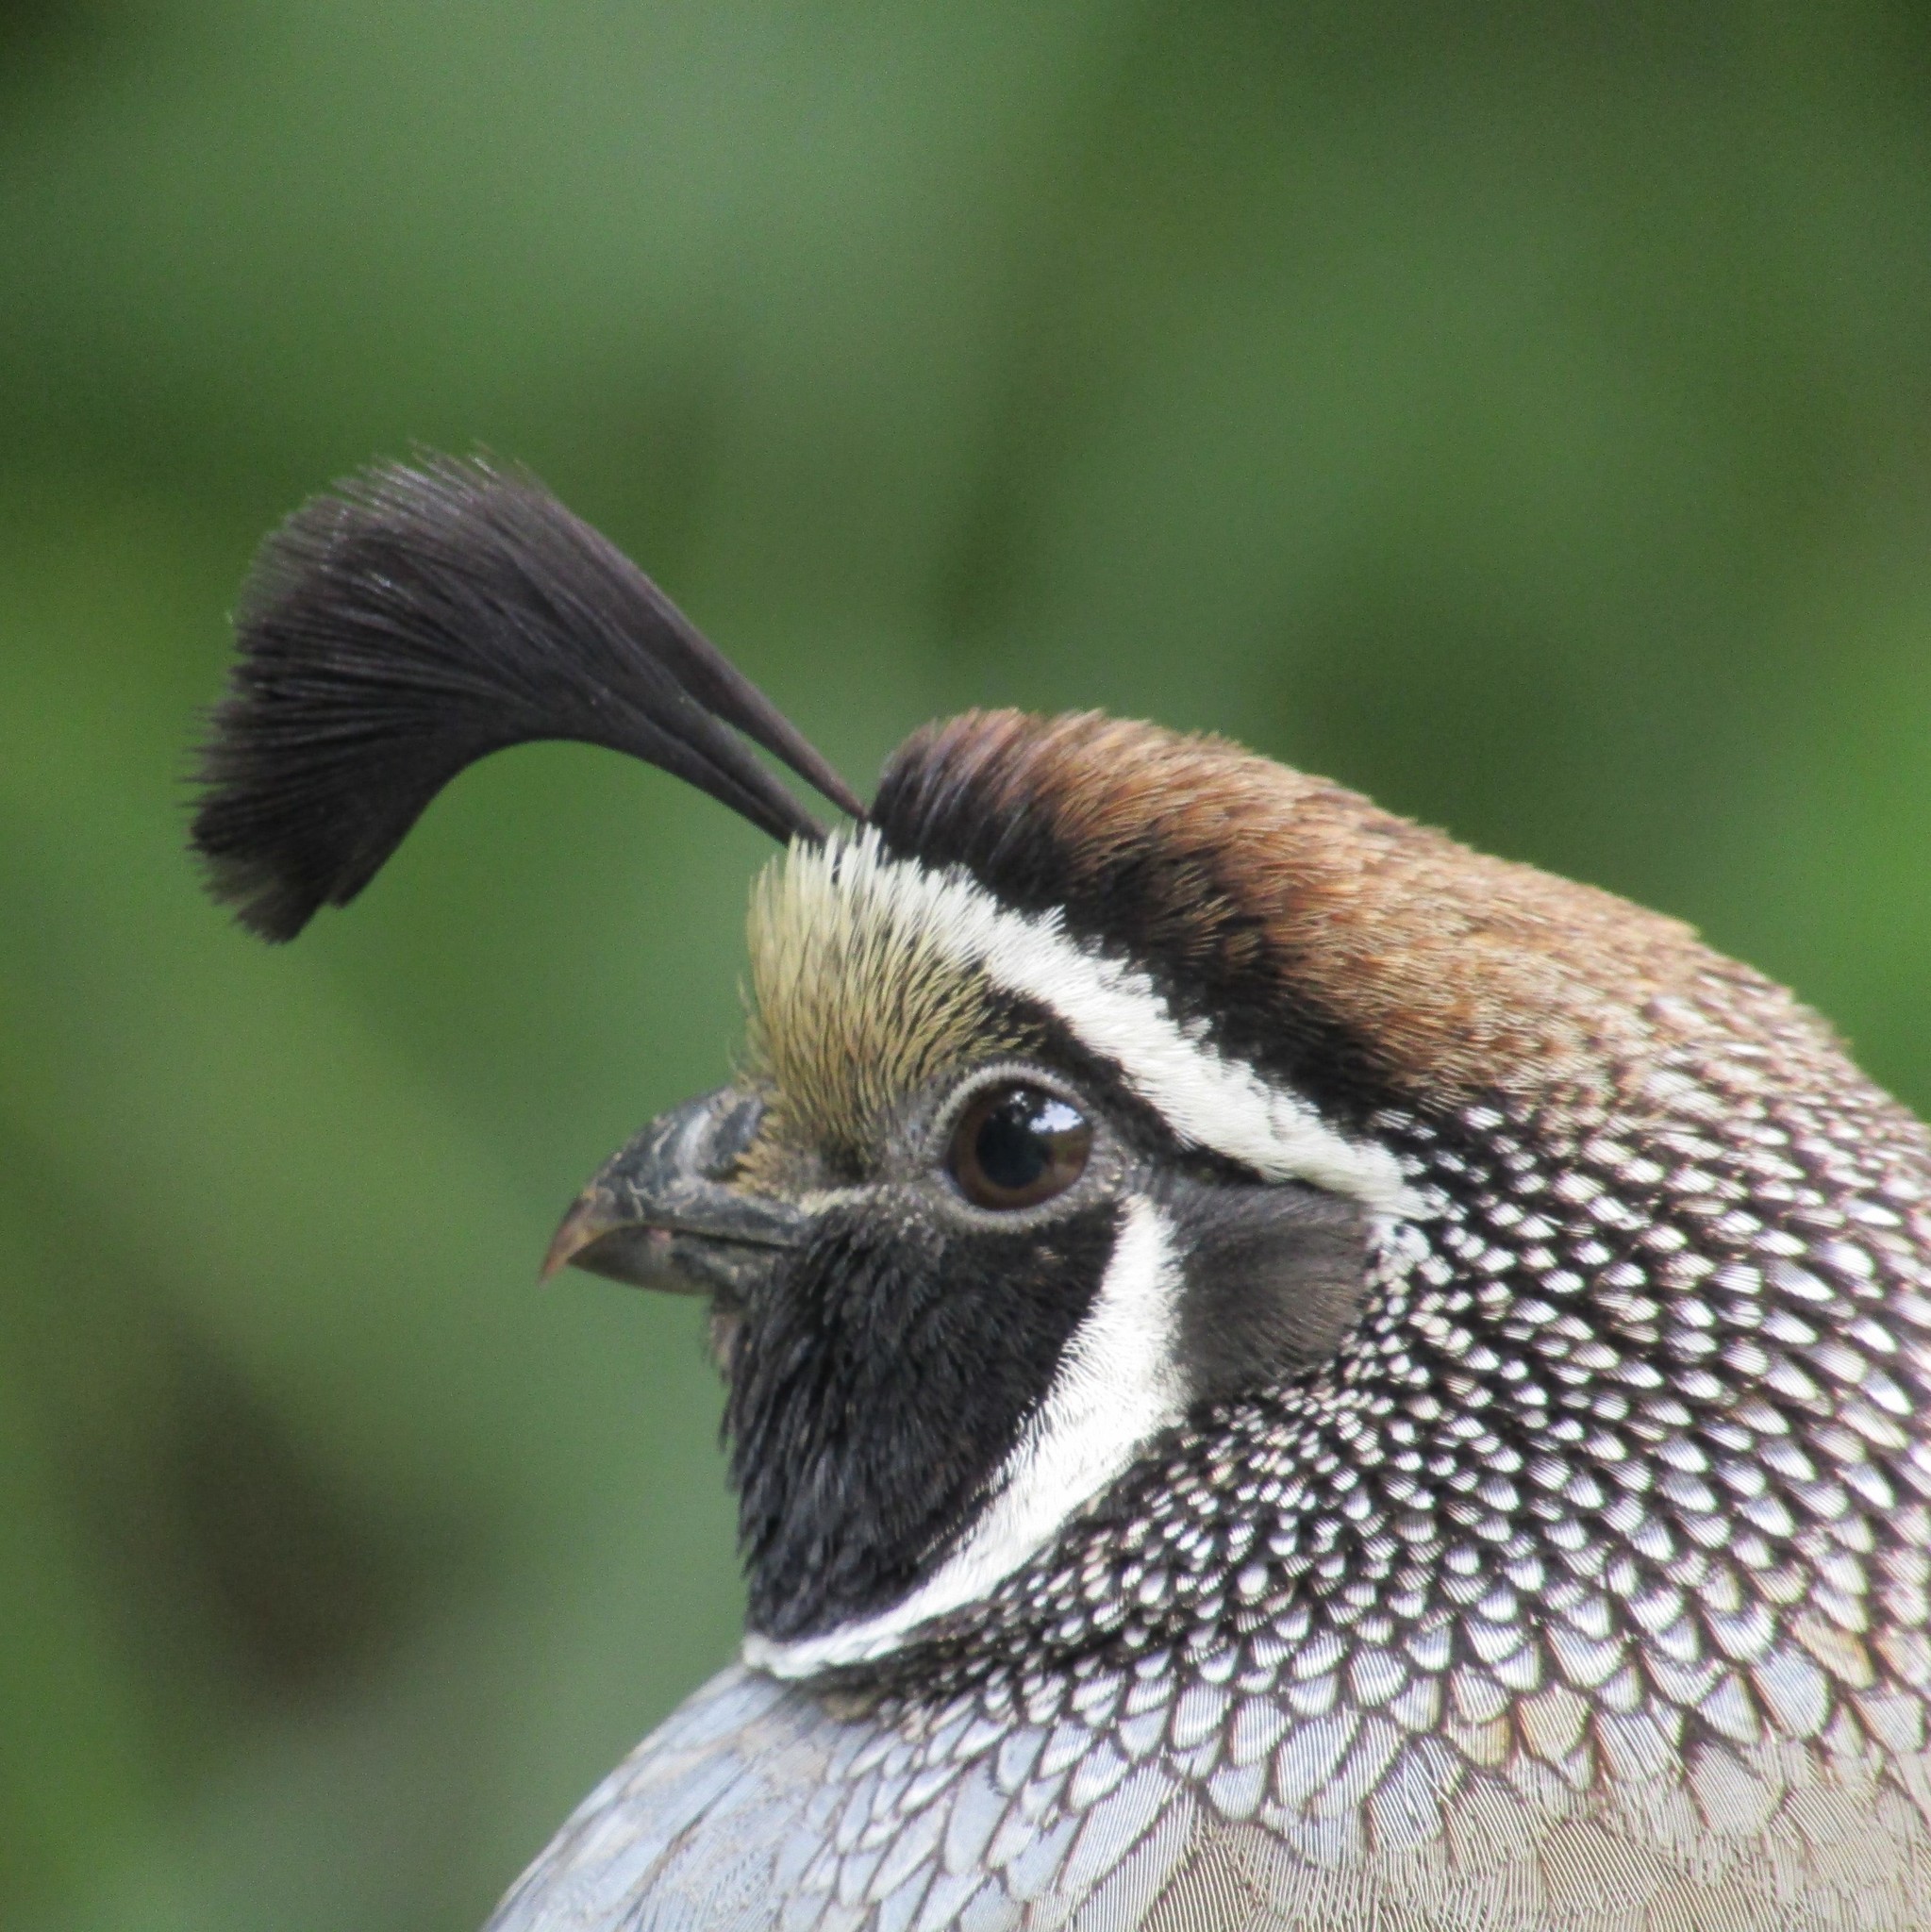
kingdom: Animalia
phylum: Chordata
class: Aves
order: Galliformes
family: Odontophoridae
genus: Callipepla
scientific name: Callipepla californica
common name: California quail
